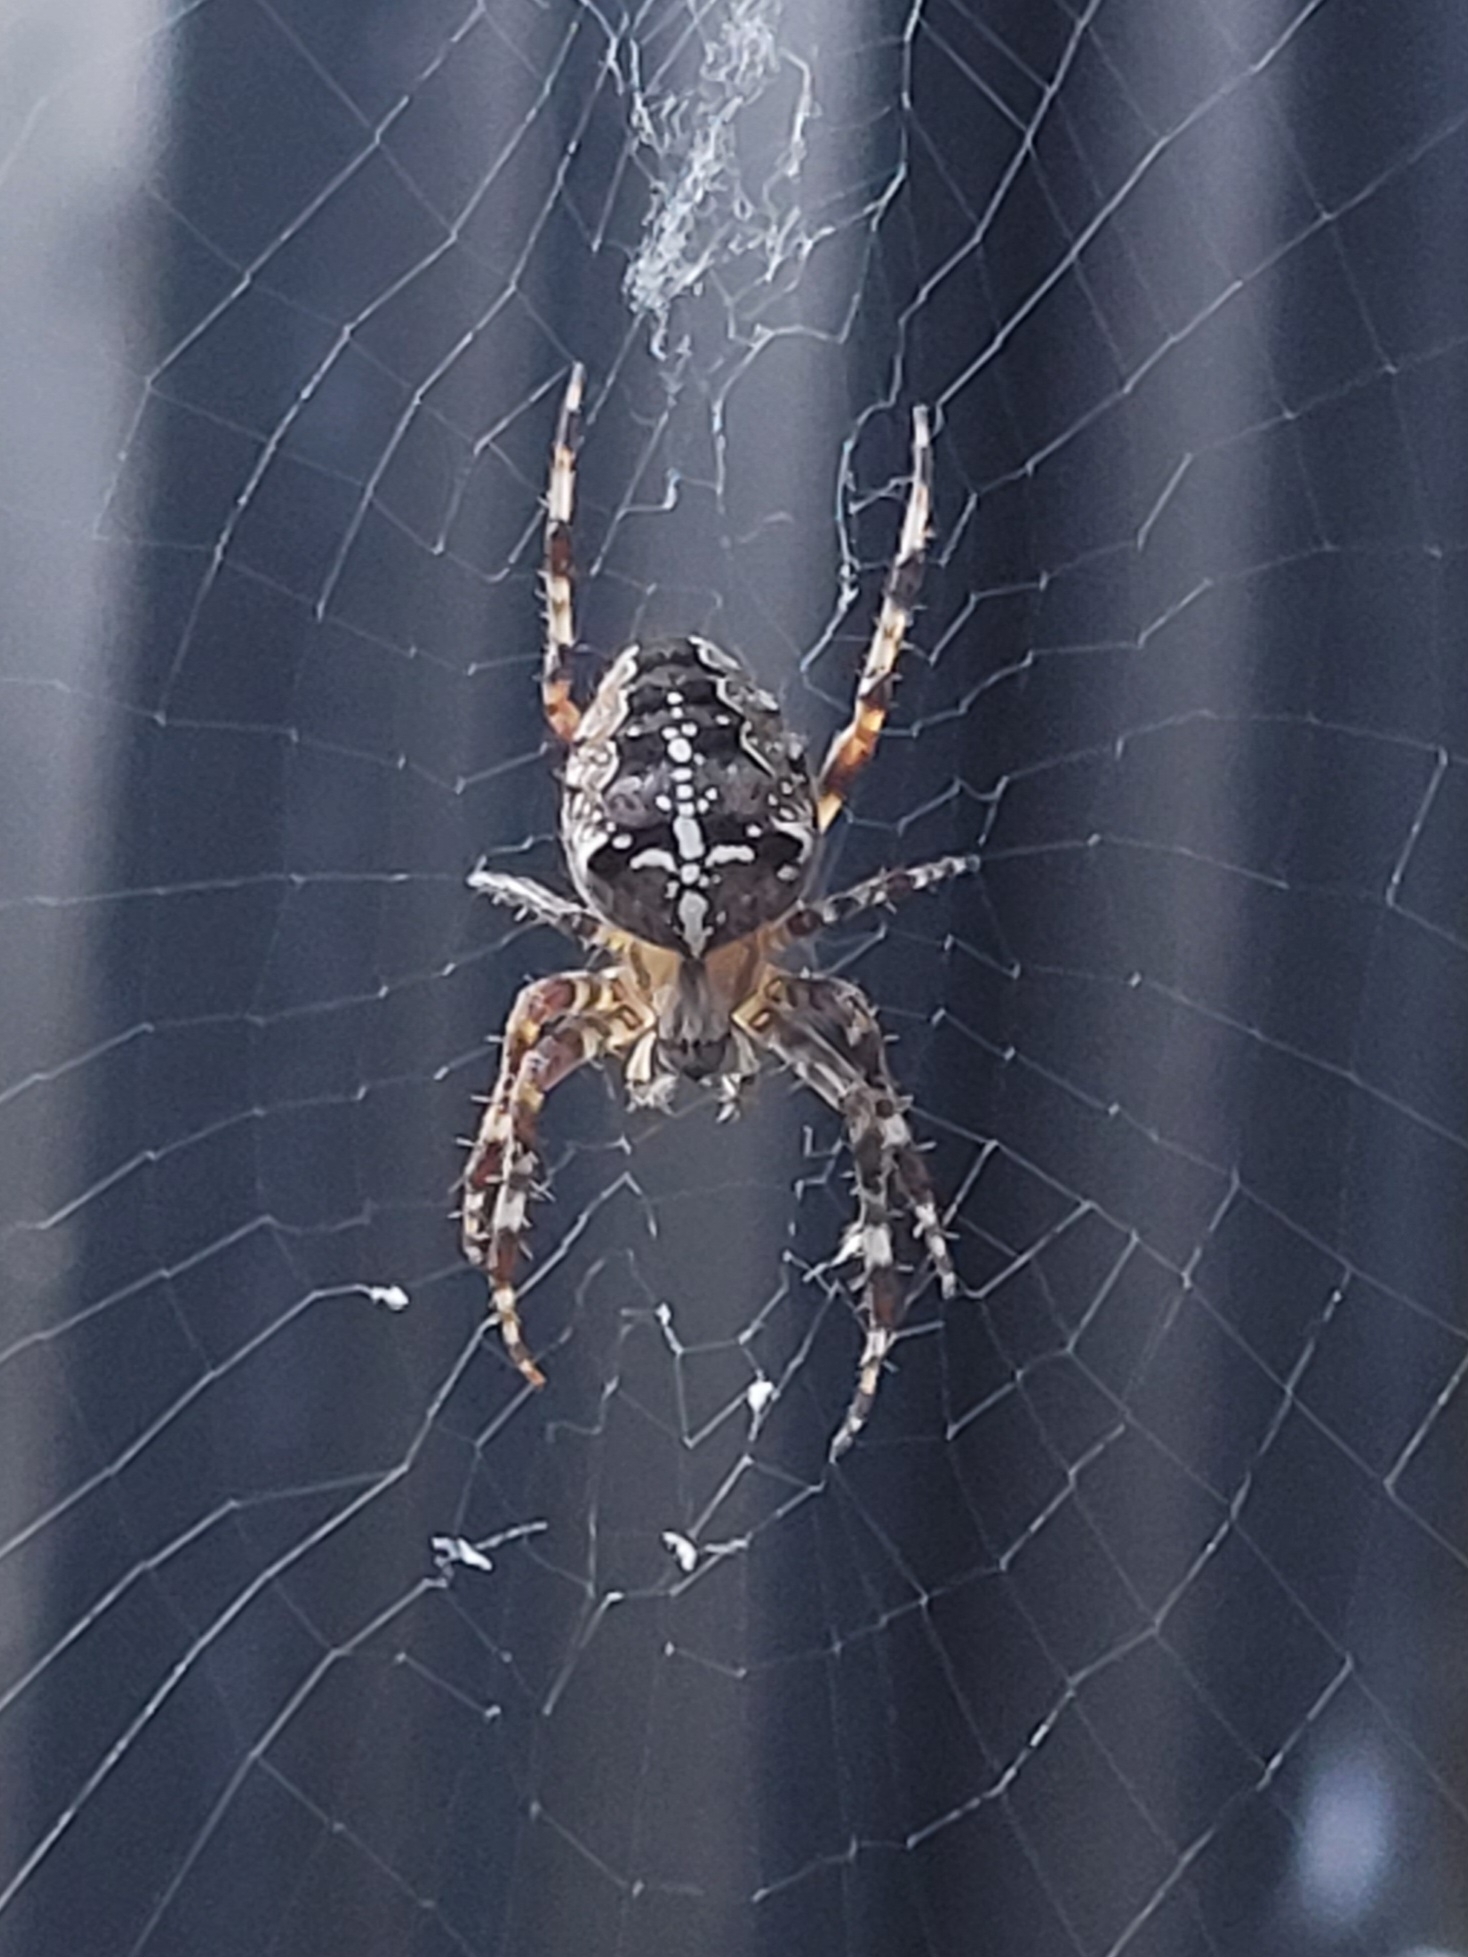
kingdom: Animalia
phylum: Arthropoda
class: Arachnida
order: Araneae
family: Araneidae
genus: Araneus
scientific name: Araneus diadematus
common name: Cross orbweaver
